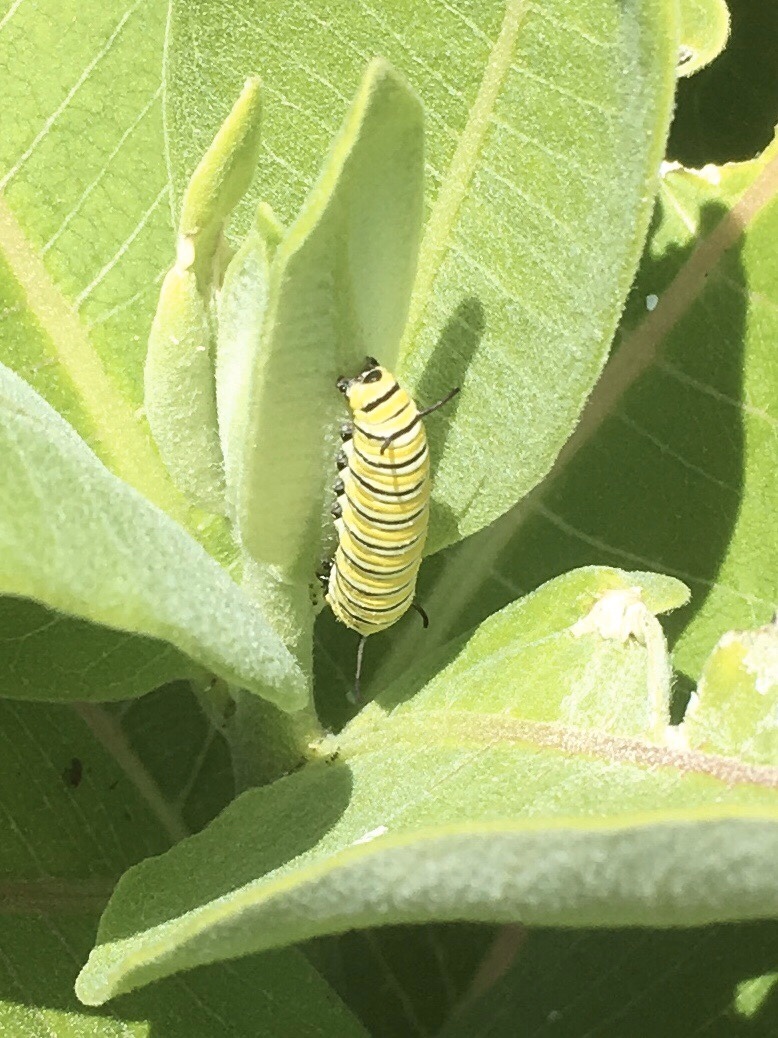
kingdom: Animalia
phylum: Arthropoda
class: Insecta
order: Lepidoptera
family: Nymphalidae
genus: Danaus
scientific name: Danaus plexippus
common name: Monarch
